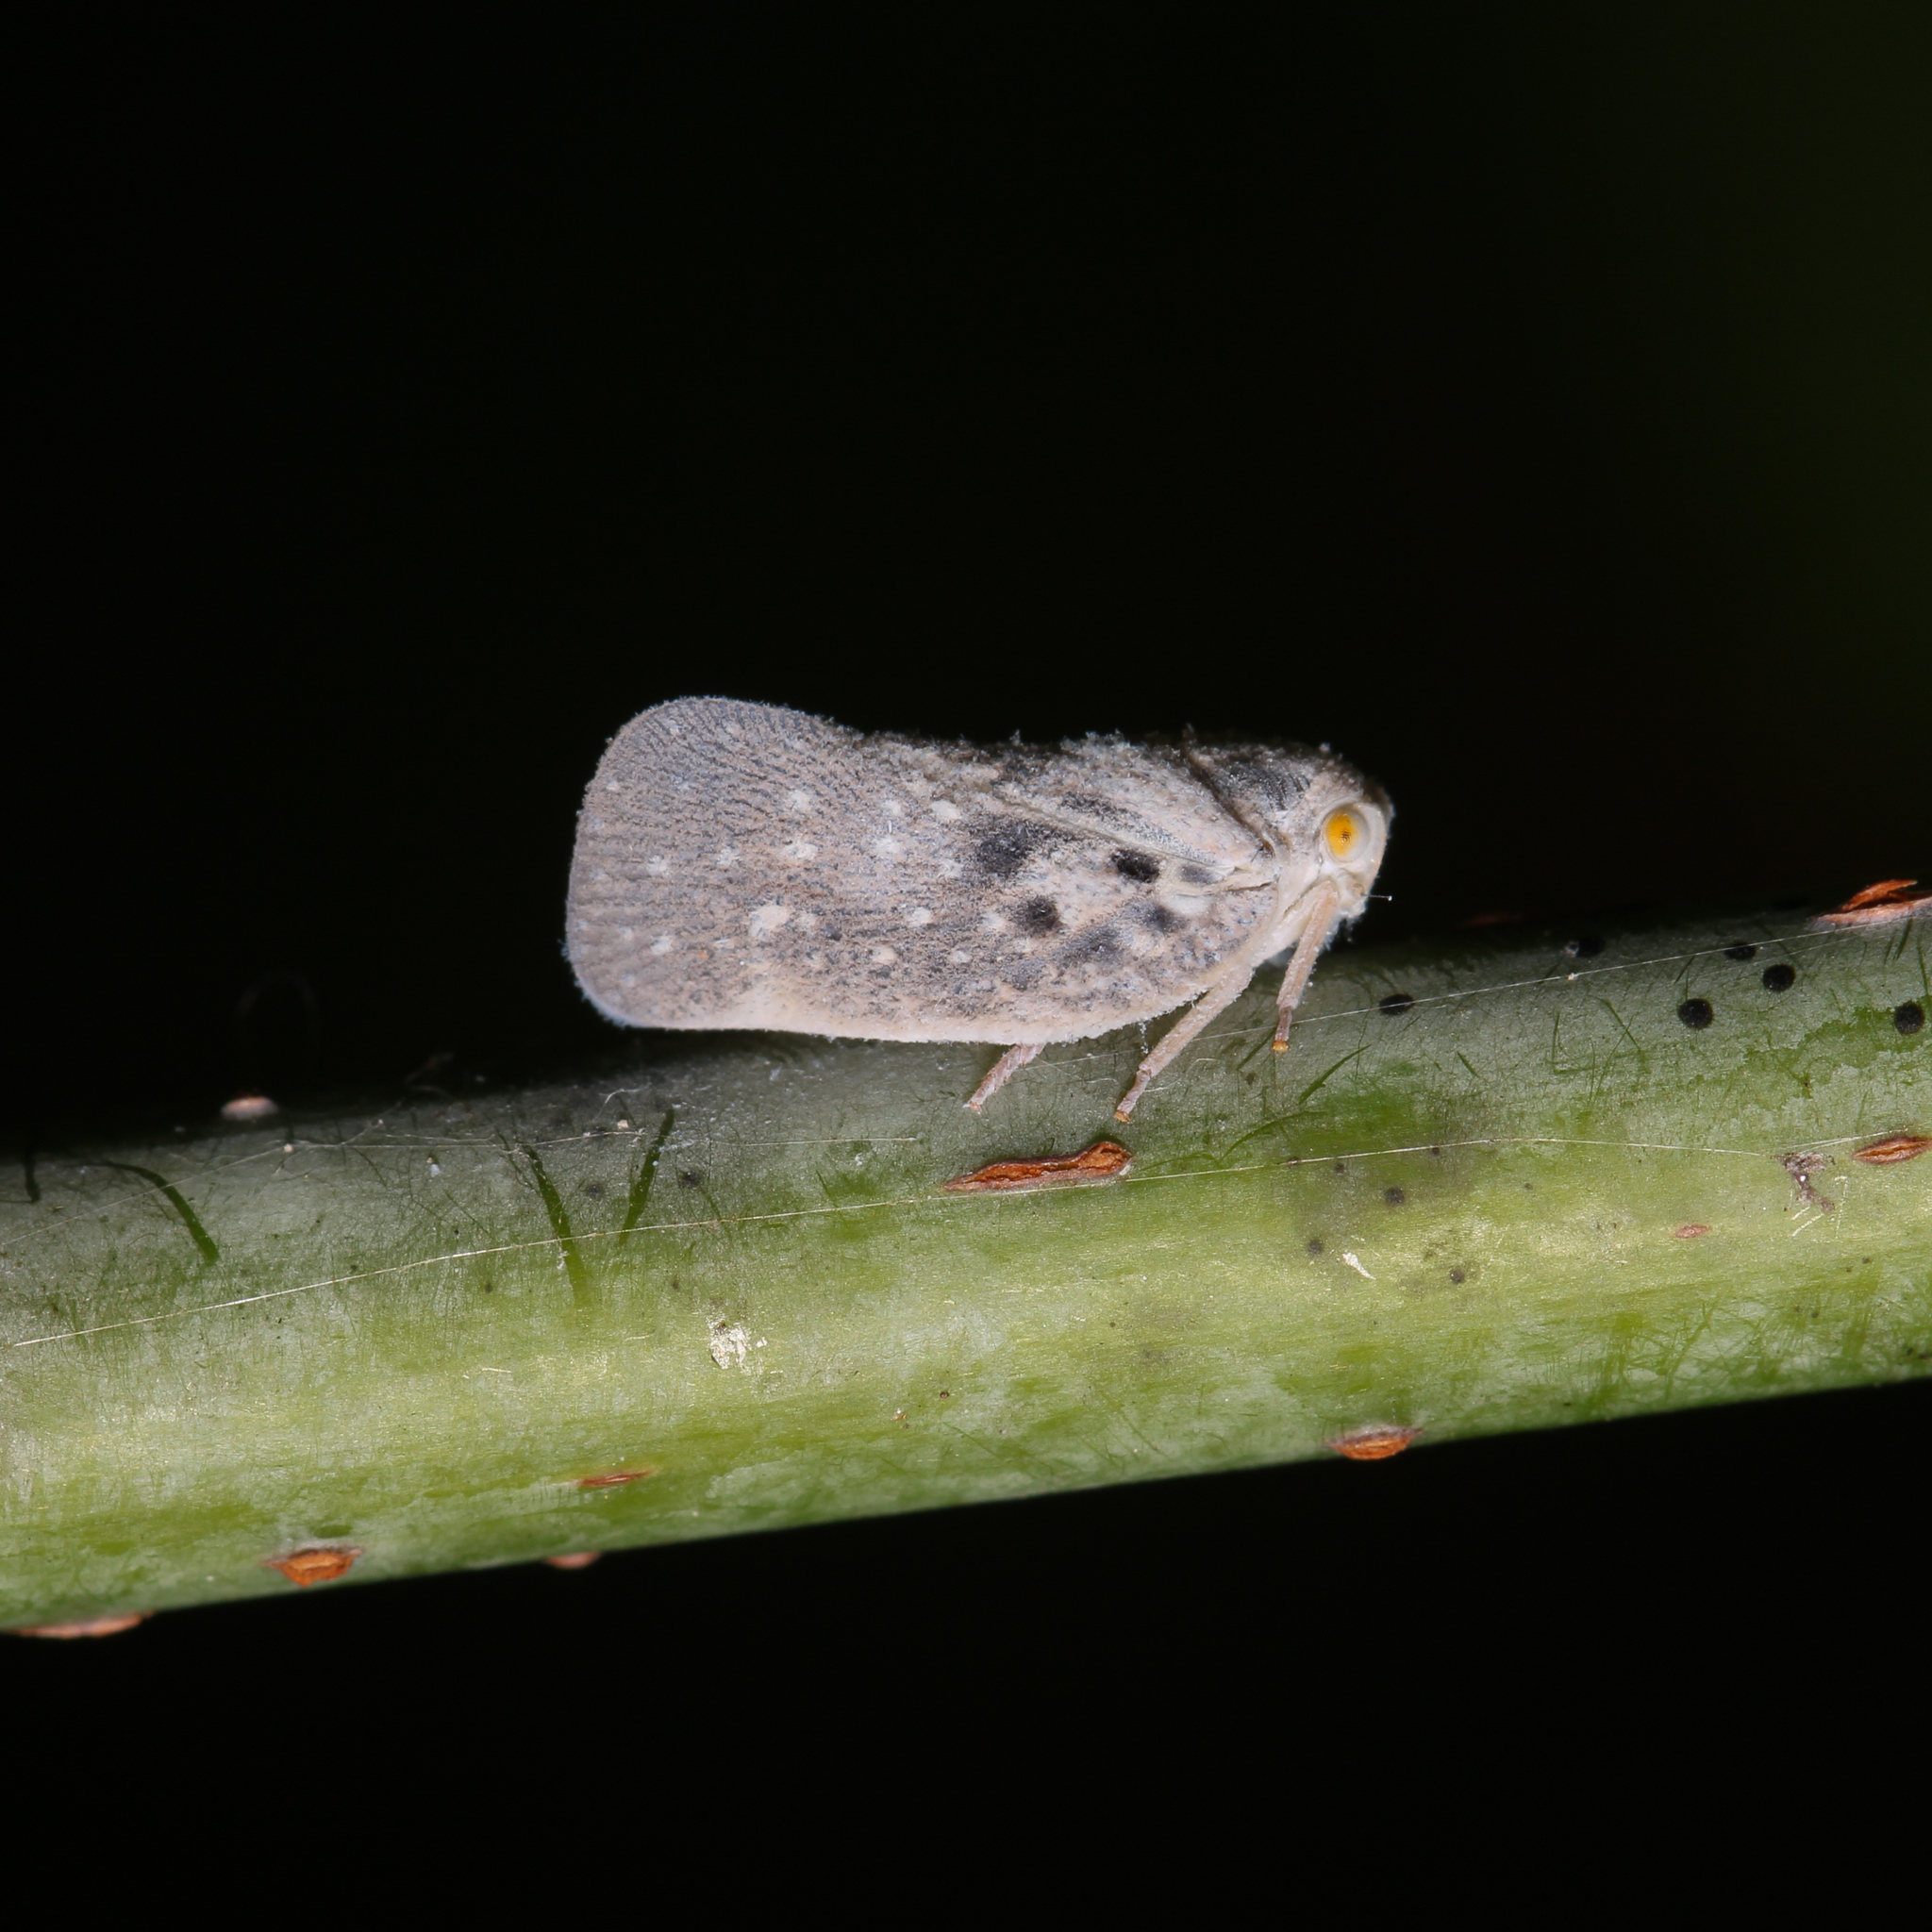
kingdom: Animalia
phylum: Arthropoda
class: Insecta
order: Hemiptera
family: Flatidae
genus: Metcalfa
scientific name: Metcalfa pruinosa
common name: Citrus flatid planthopper
